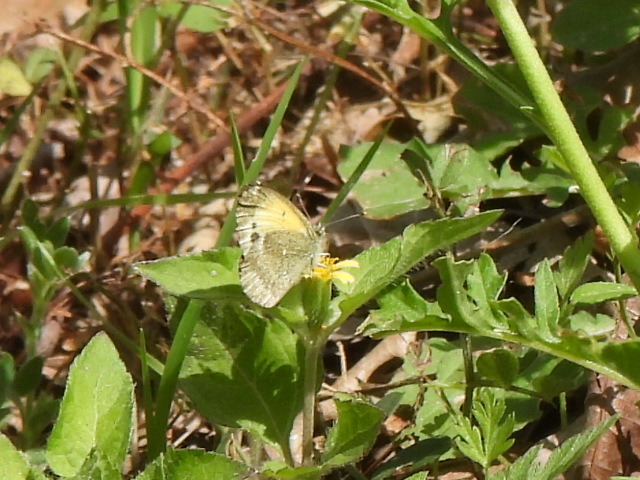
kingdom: Animalia
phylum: Arthropoda
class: Insecta
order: Lepidoptera
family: Pieridae
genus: Nathalis
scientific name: Nathalis iole
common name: Dainty sulphur
